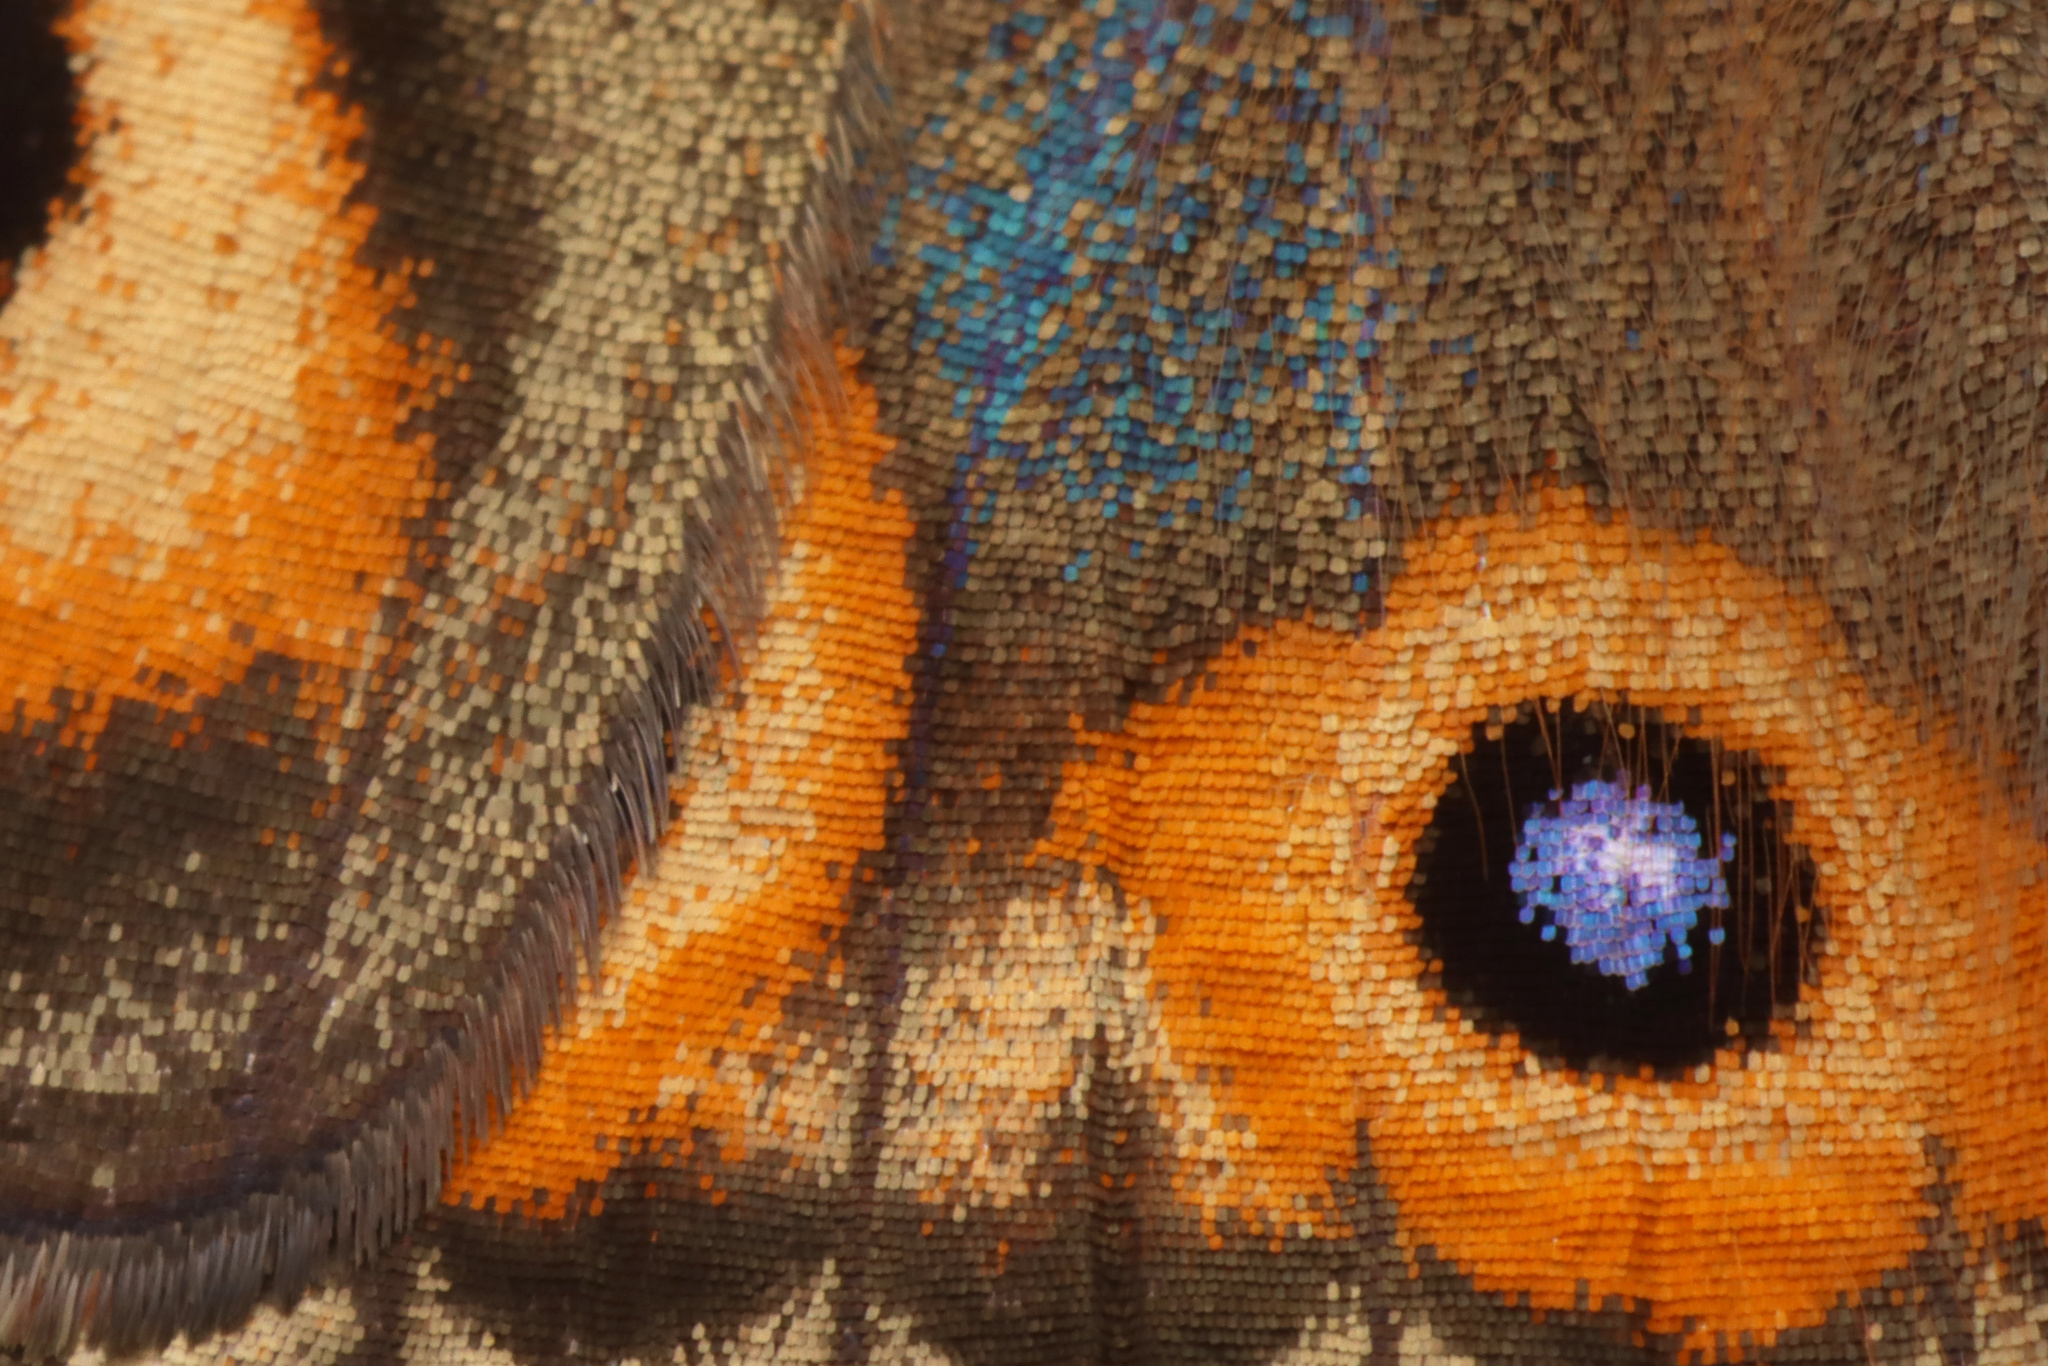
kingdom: Animalia
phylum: Arthropoda
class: Insecta
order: Lepidoptera
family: Nymphalidae
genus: Junonia
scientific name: Junonia villida
